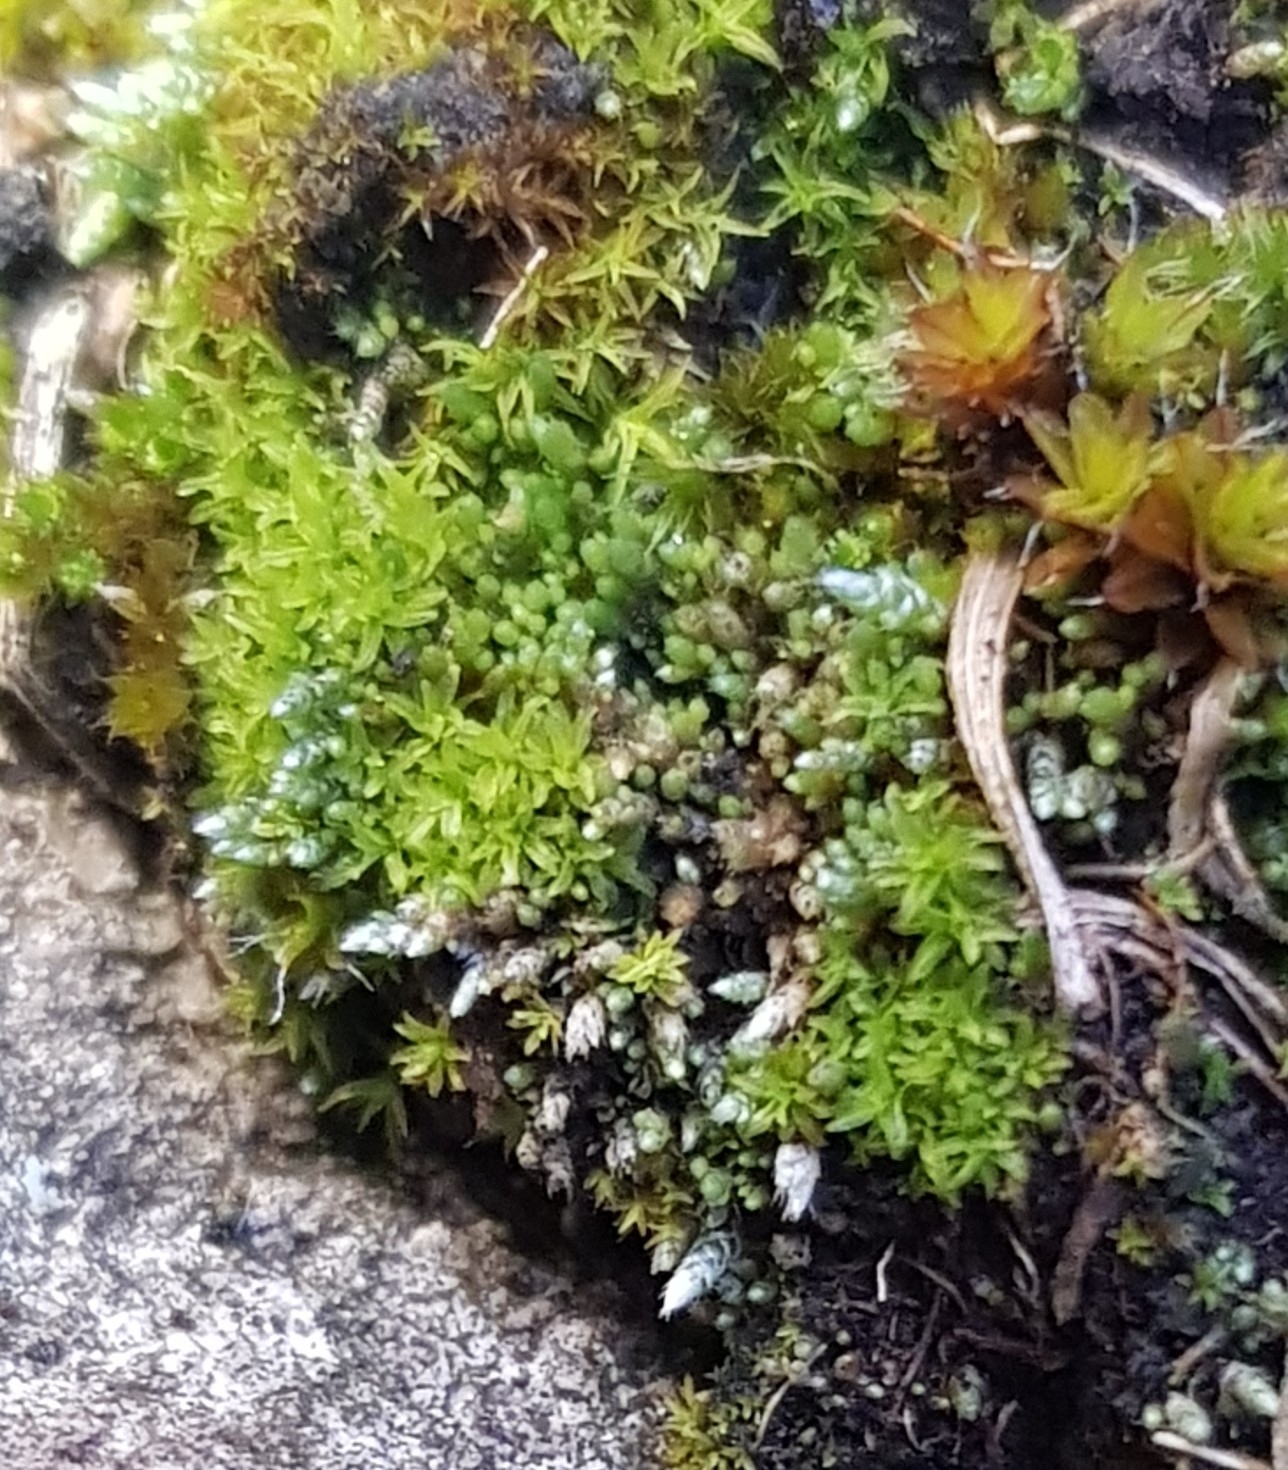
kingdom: Plantae
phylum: Bryophyta
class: Bryopsida
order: Bryales
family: Bryaceae
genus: Bryum
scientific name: Bryum argenteum
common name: Silver-moss
